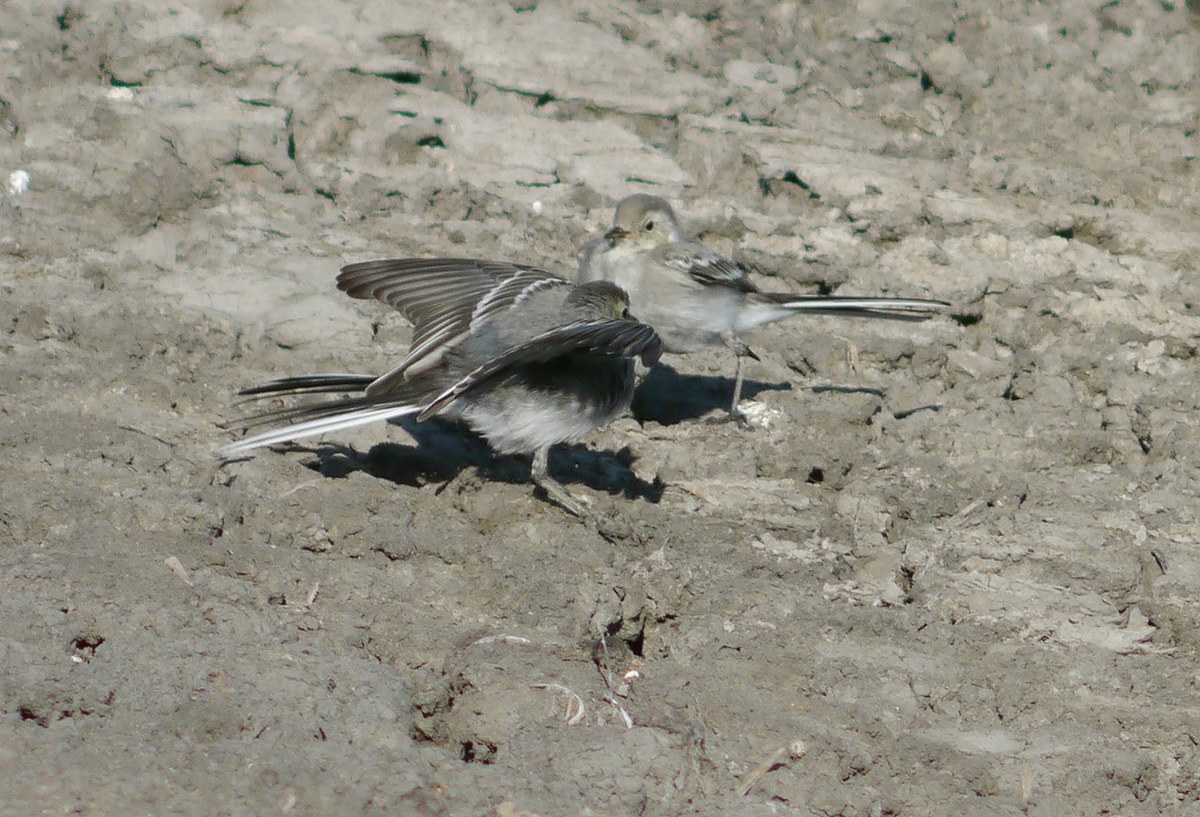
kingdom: Animalia
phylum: Chordata
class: Aves
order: Passeriformes
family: Motacillidae
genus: Motacilla
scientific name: Motacilla alba
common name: White wagtail
